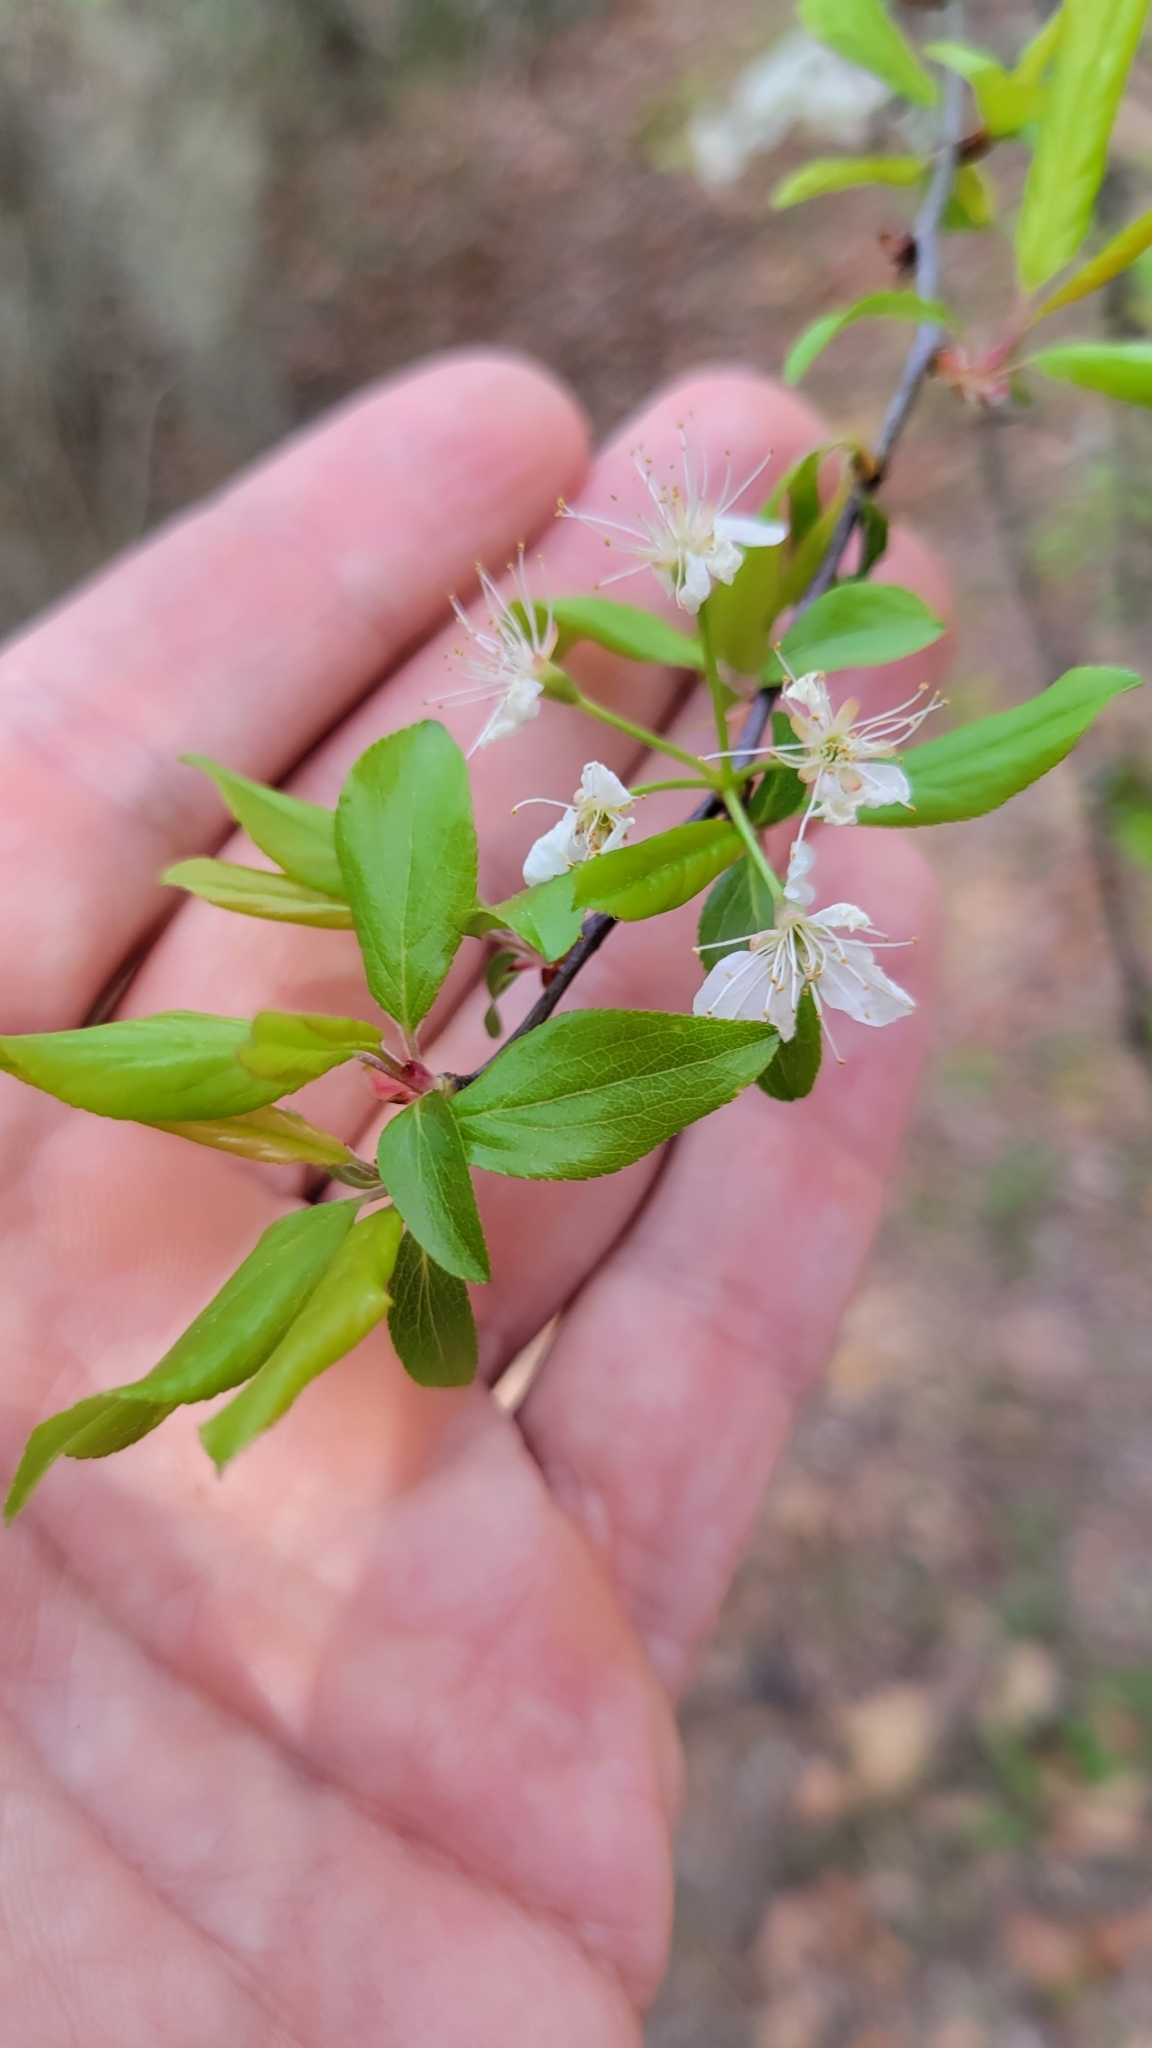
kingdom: Plantae
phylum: Tracheophyta
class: Magnoliopsida
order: Rosales
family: Rosaceae
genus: Prunus
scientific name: Prunus umbellata
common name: Allegheny plum
